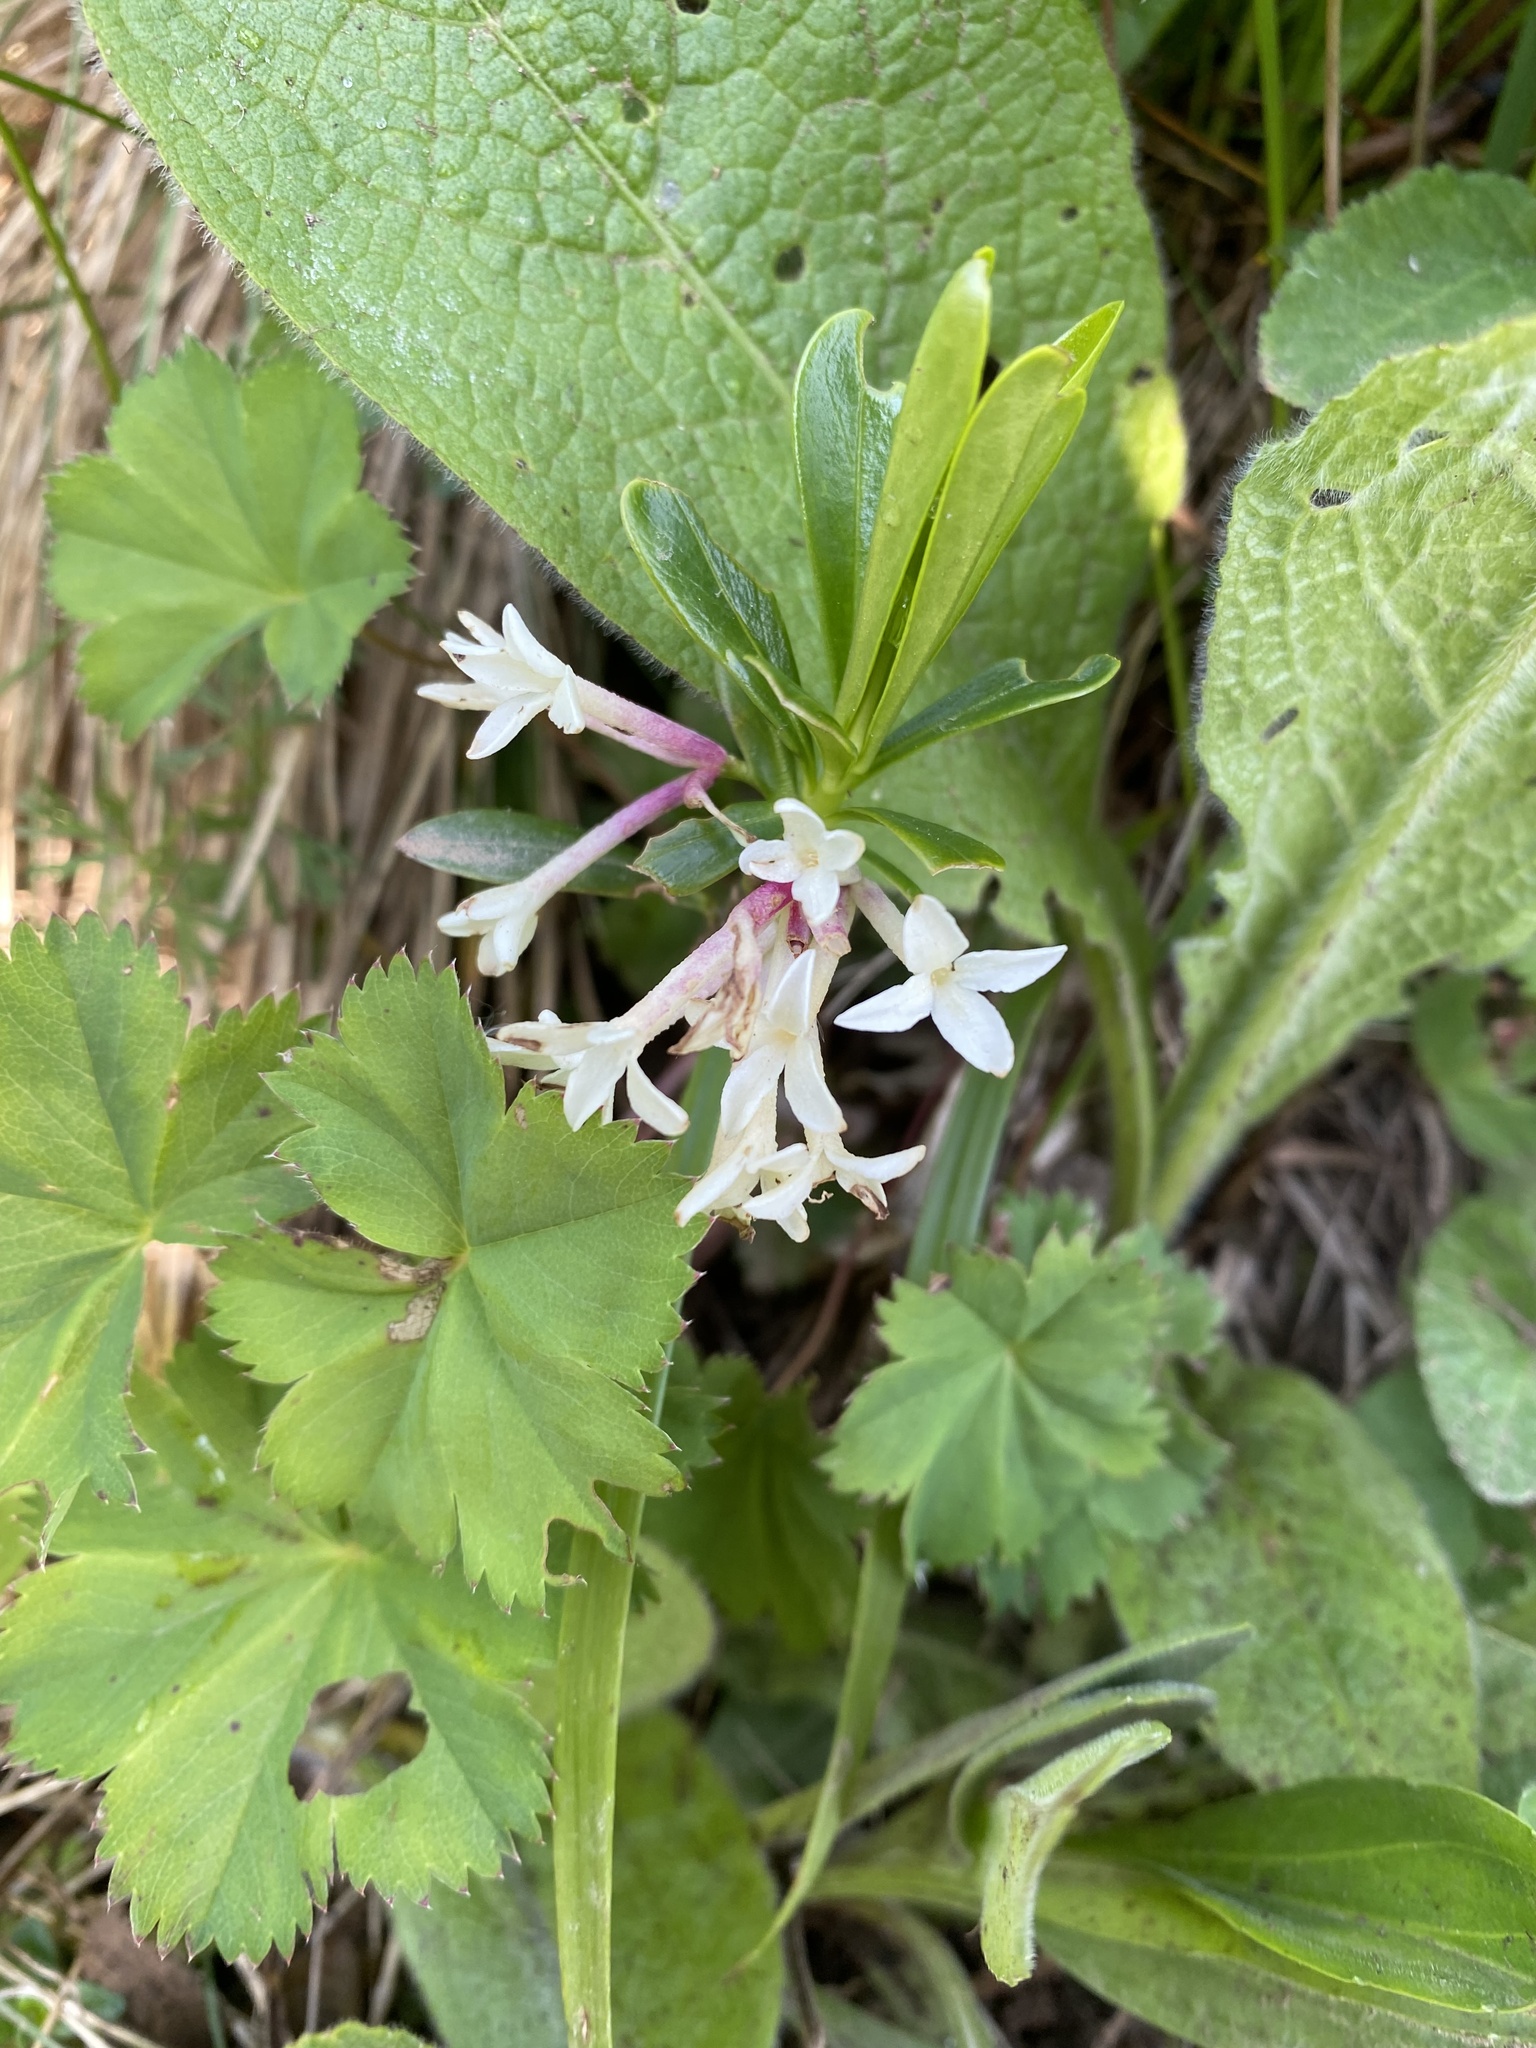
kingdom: Plantae
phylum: Tracheophyta
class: Magnoliopsida
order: Malvales
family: Thymelaeaceae
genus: Daphne
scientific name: Daphne glomerata
